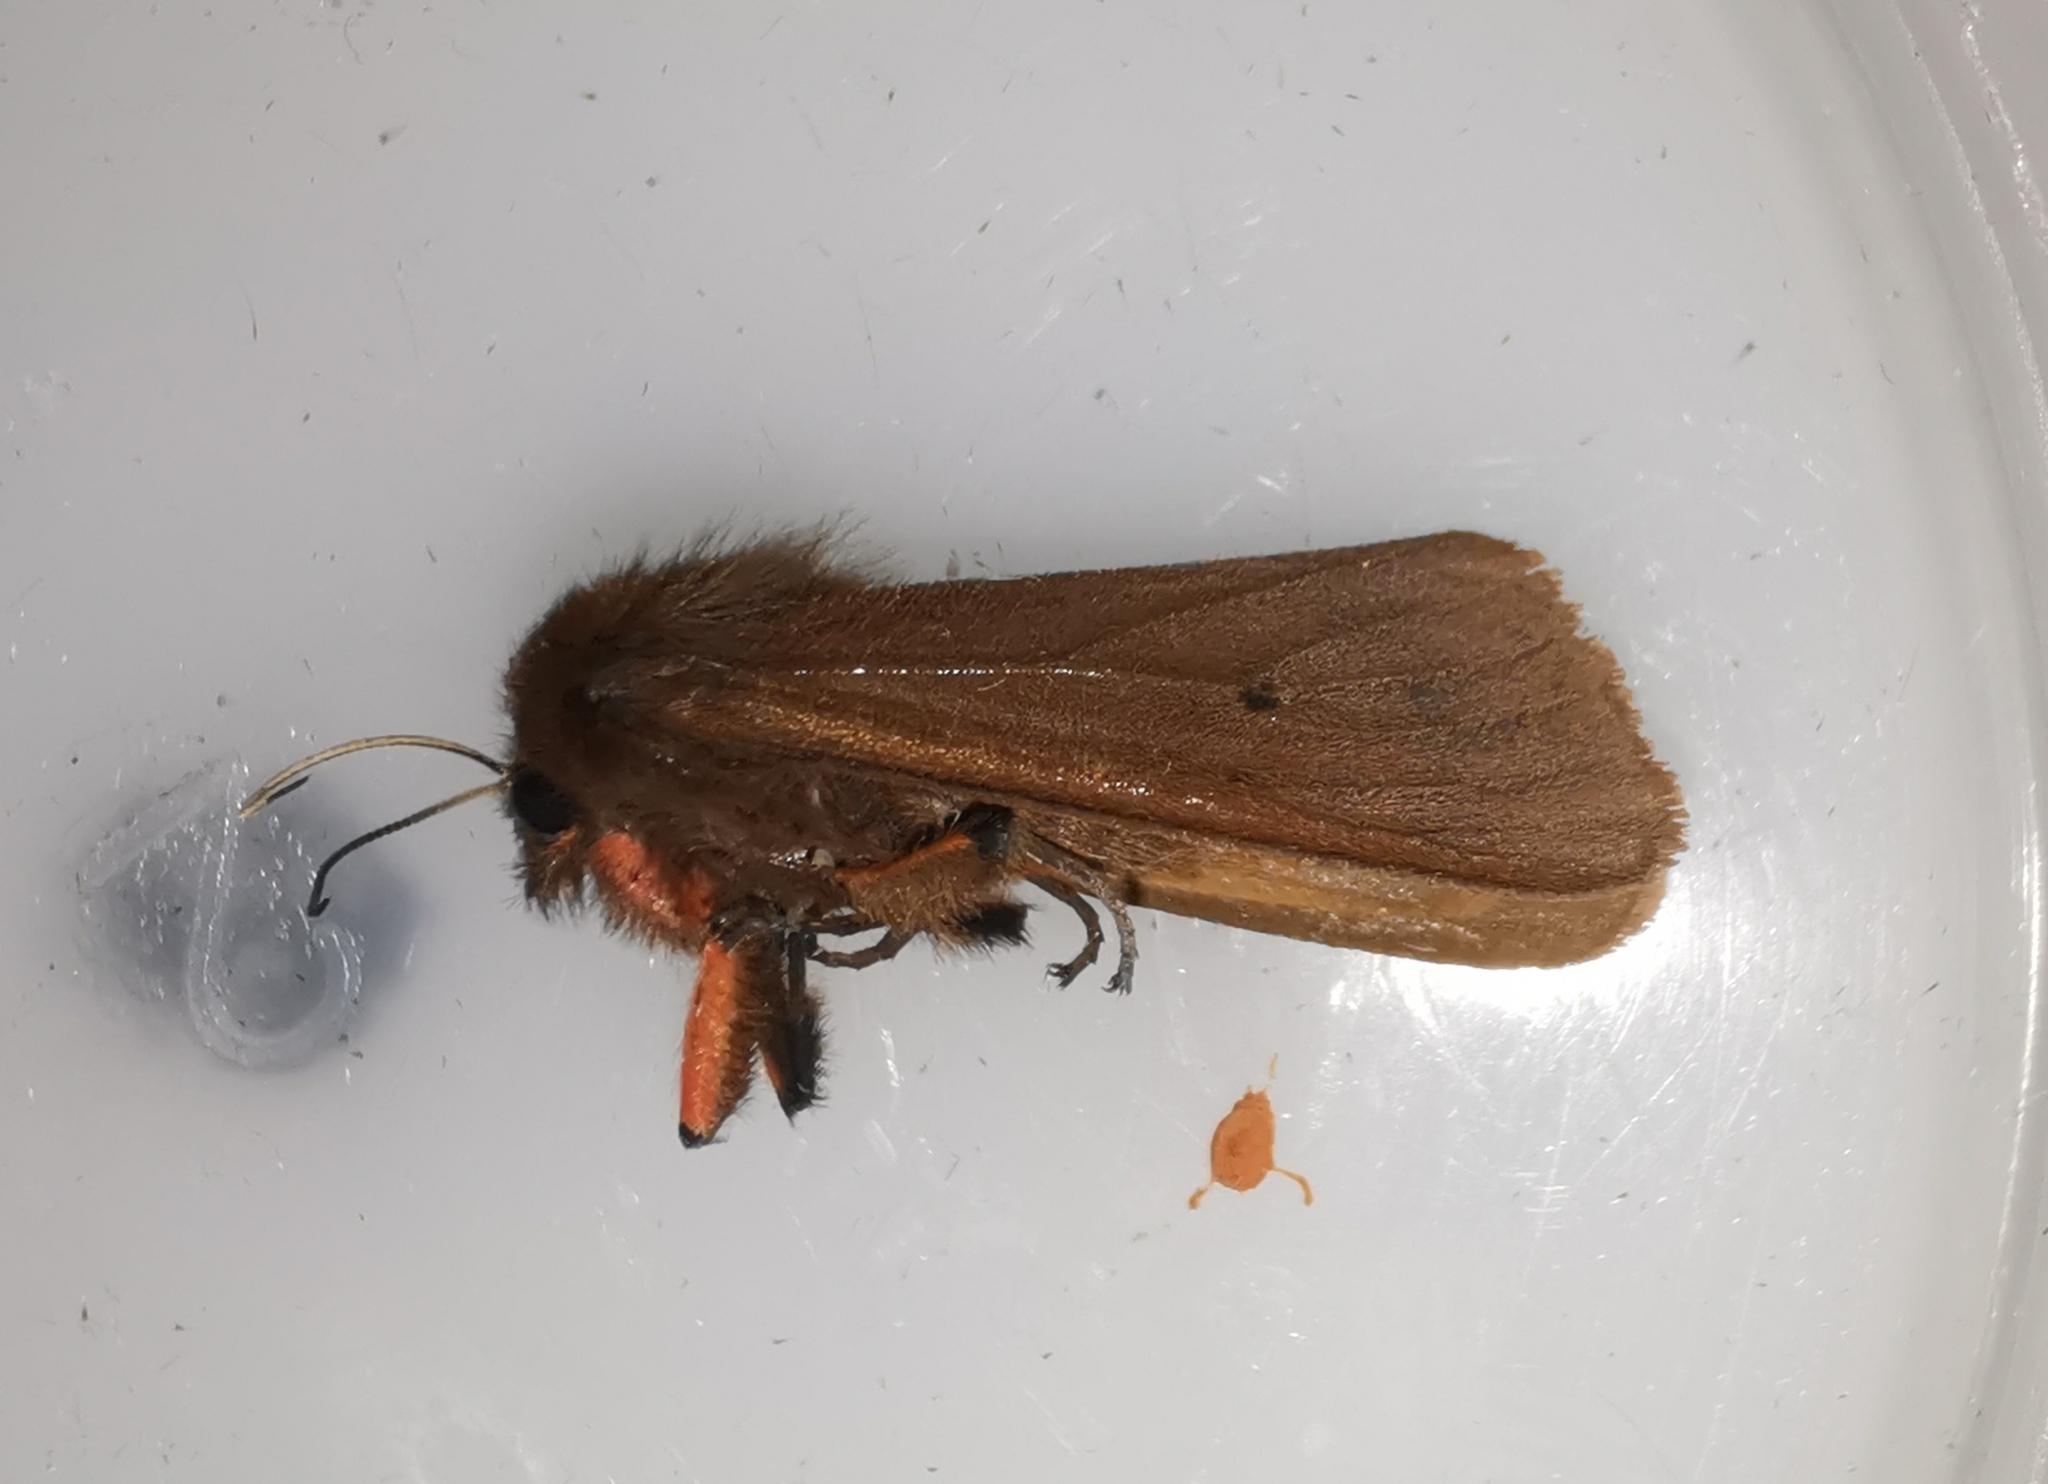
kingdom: Animalia
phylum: Arthropoda
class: Insecta
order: Lepidoptera
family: Erebidae
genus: Phragmatobia
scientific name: Phragmatobia fuliginosa
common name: Ruby tiger
